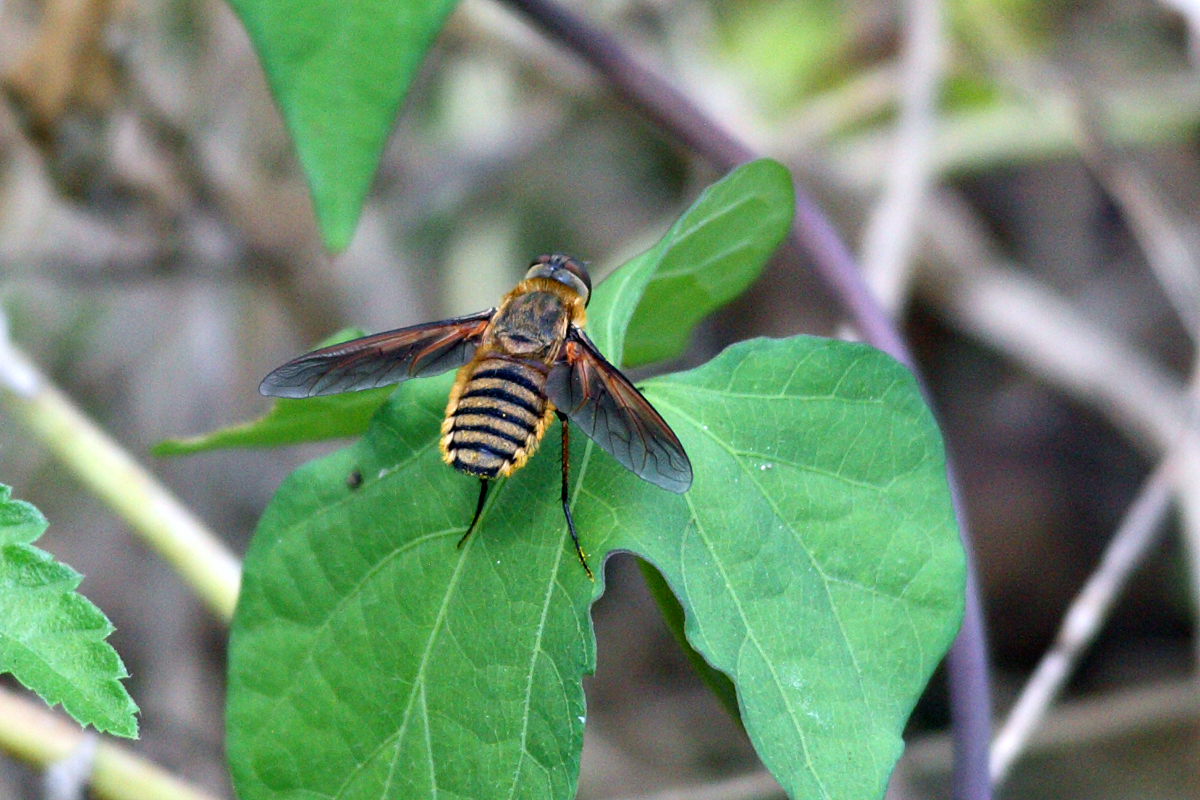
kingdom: Animalia
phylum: Arthropoda
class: Insecta
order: Diptera
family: Bombyliidae
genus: Poecilanthrax
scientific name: Poecilanthrax lucifer
